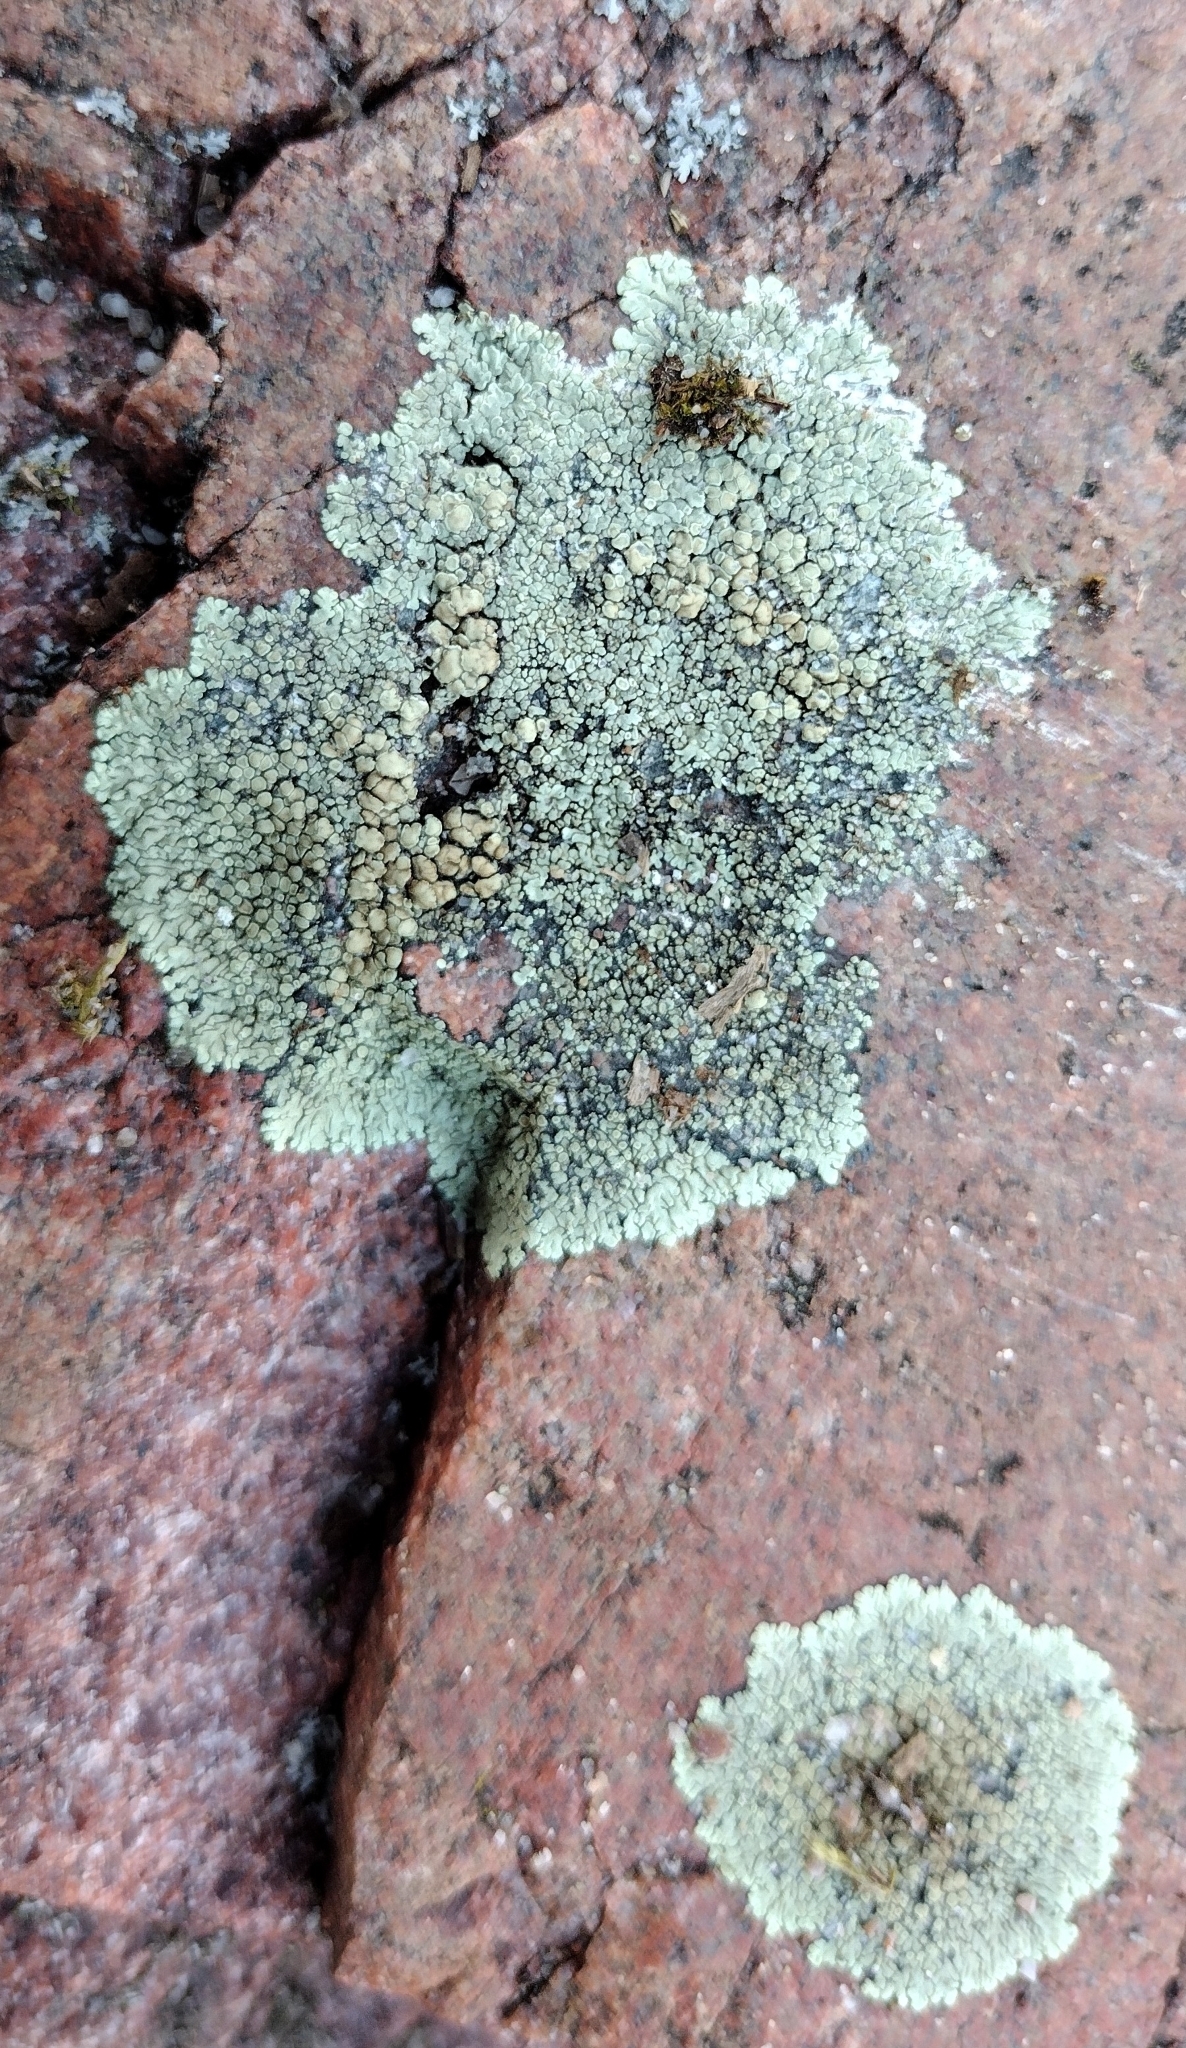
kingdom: Fungi
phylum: Ascomycota
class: Lecanoromycetes
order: Lecanorales
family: Lecanoraceae
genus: Protoparmeliopsis
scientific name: Protoparmeliopsis muralis
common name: Stonewall rim lichen
